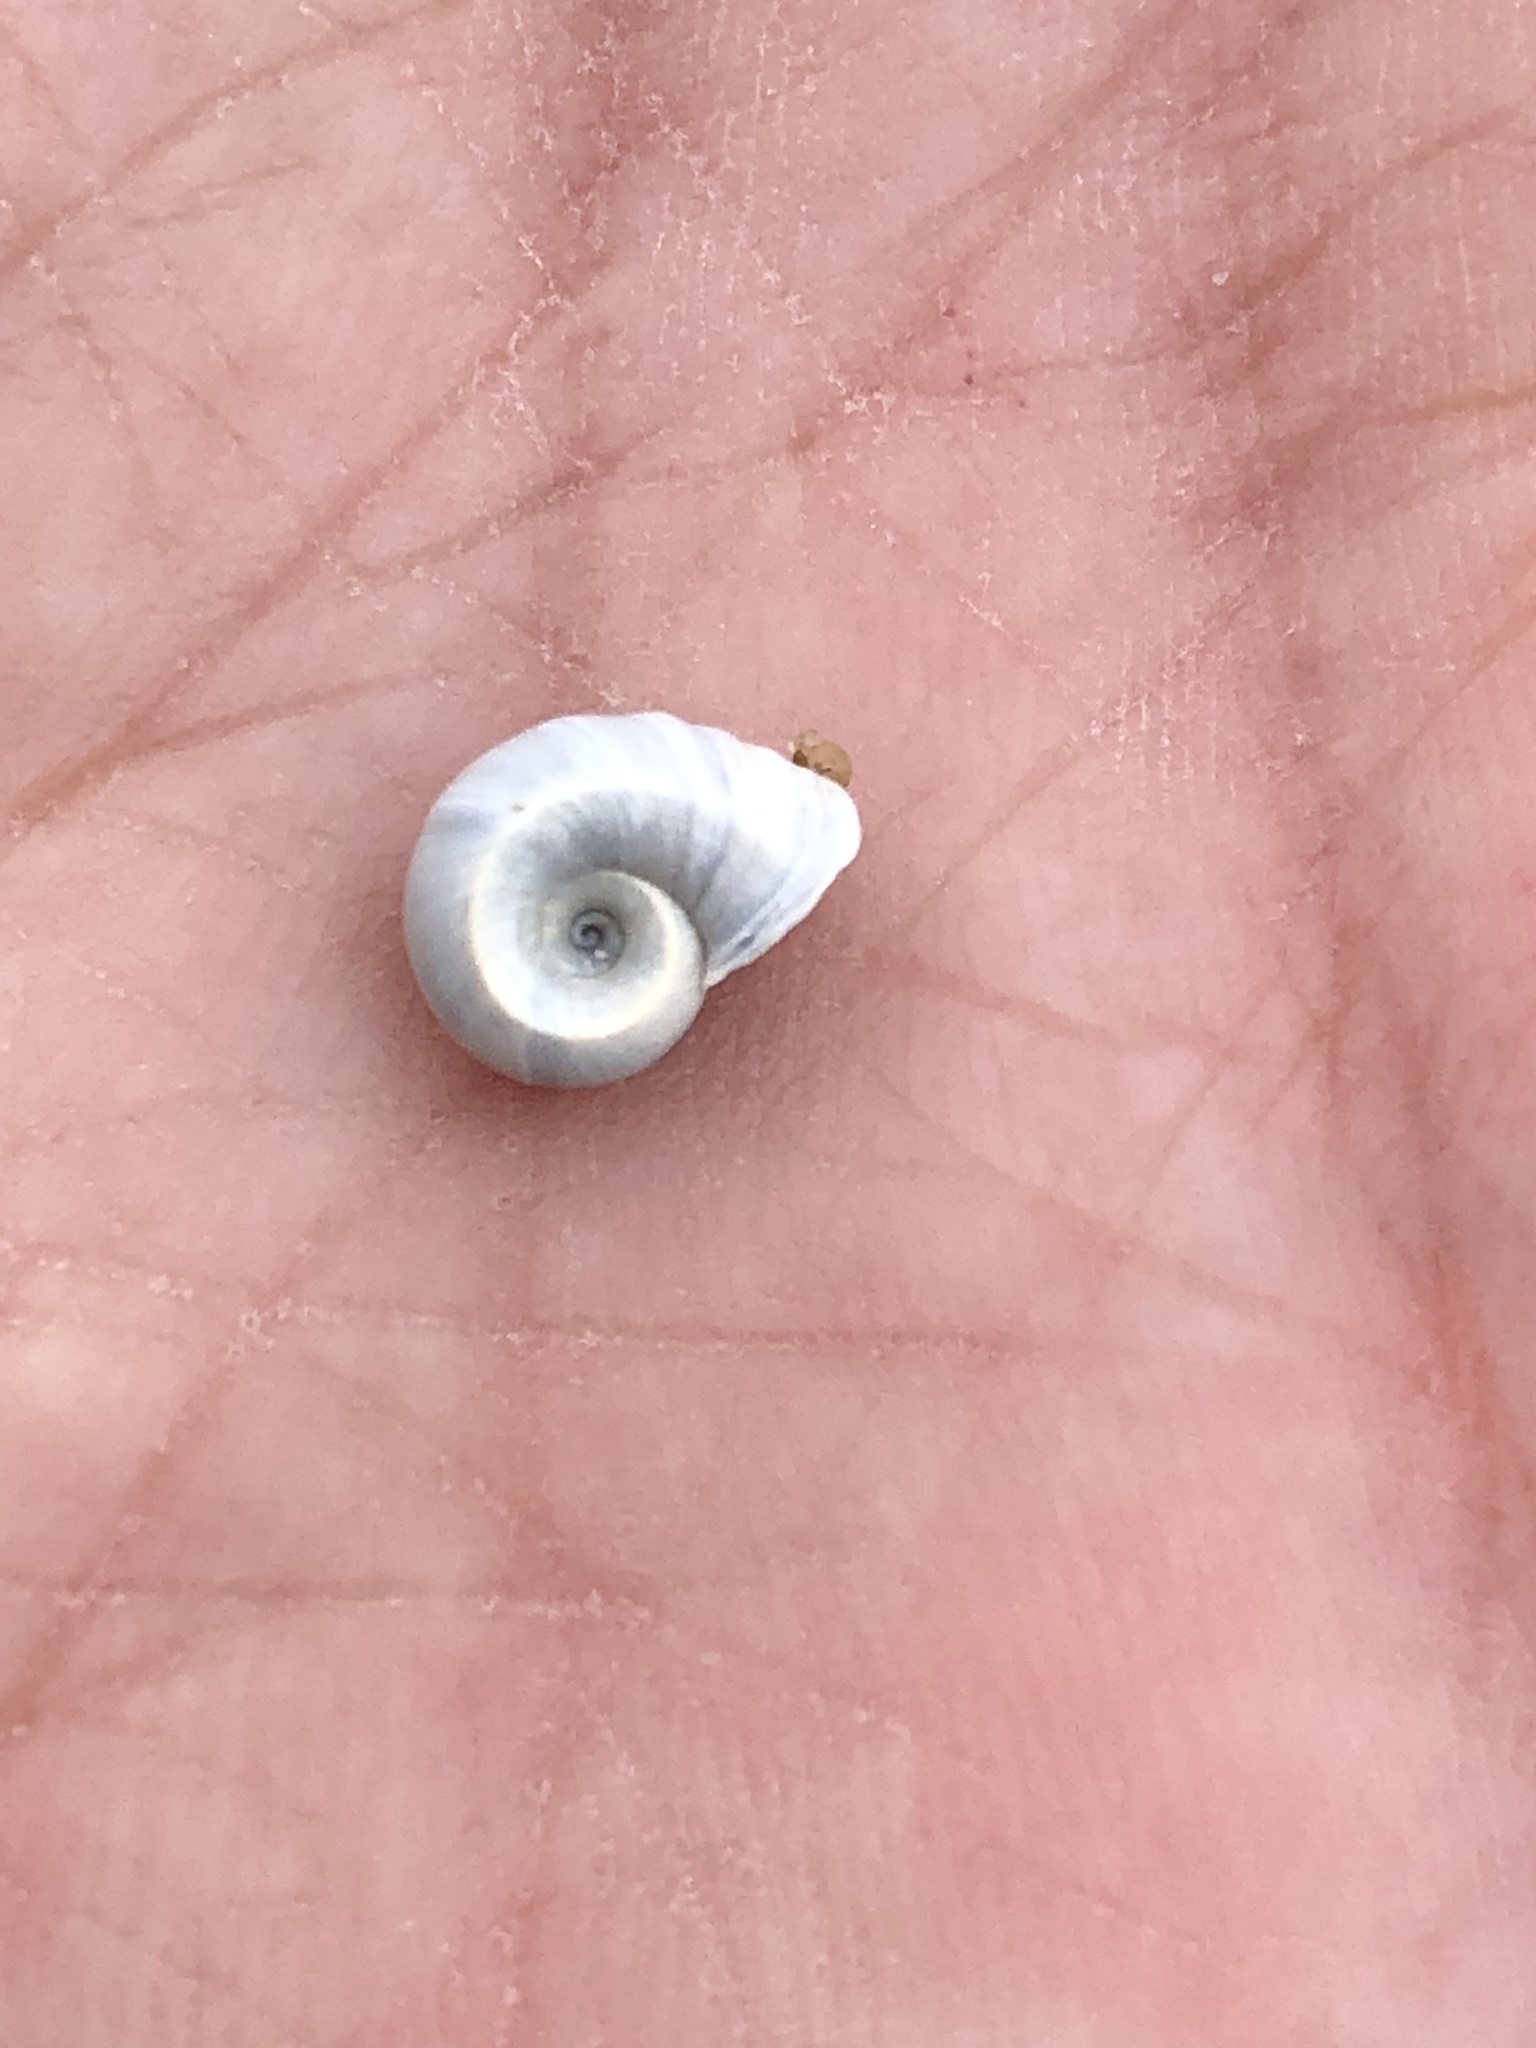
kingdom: Animalia
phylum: Mollusca
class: Gastropoda
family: Planorbidae
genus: Planorbella
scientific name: Planorbella trivolvis
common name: Marsh rams-horn
